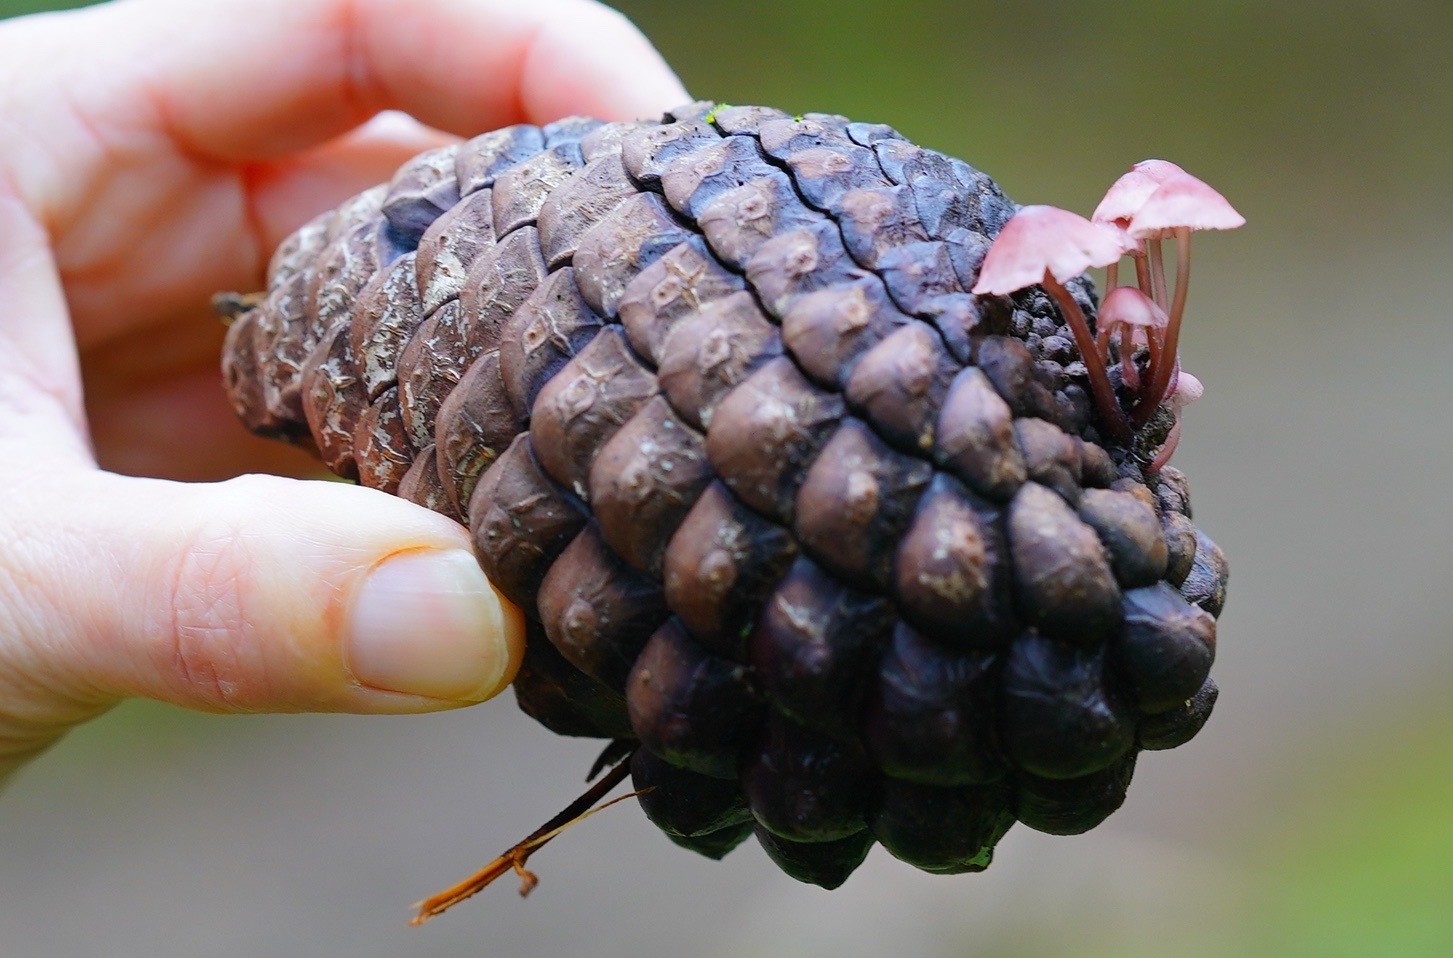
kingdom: Fungi
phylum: Basidiomycota
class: Agaricomycetes
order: Agaricales
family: Mycenaceae
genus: Mycena
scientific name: Mycena purpureofusca
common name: Purple edge bonnet
